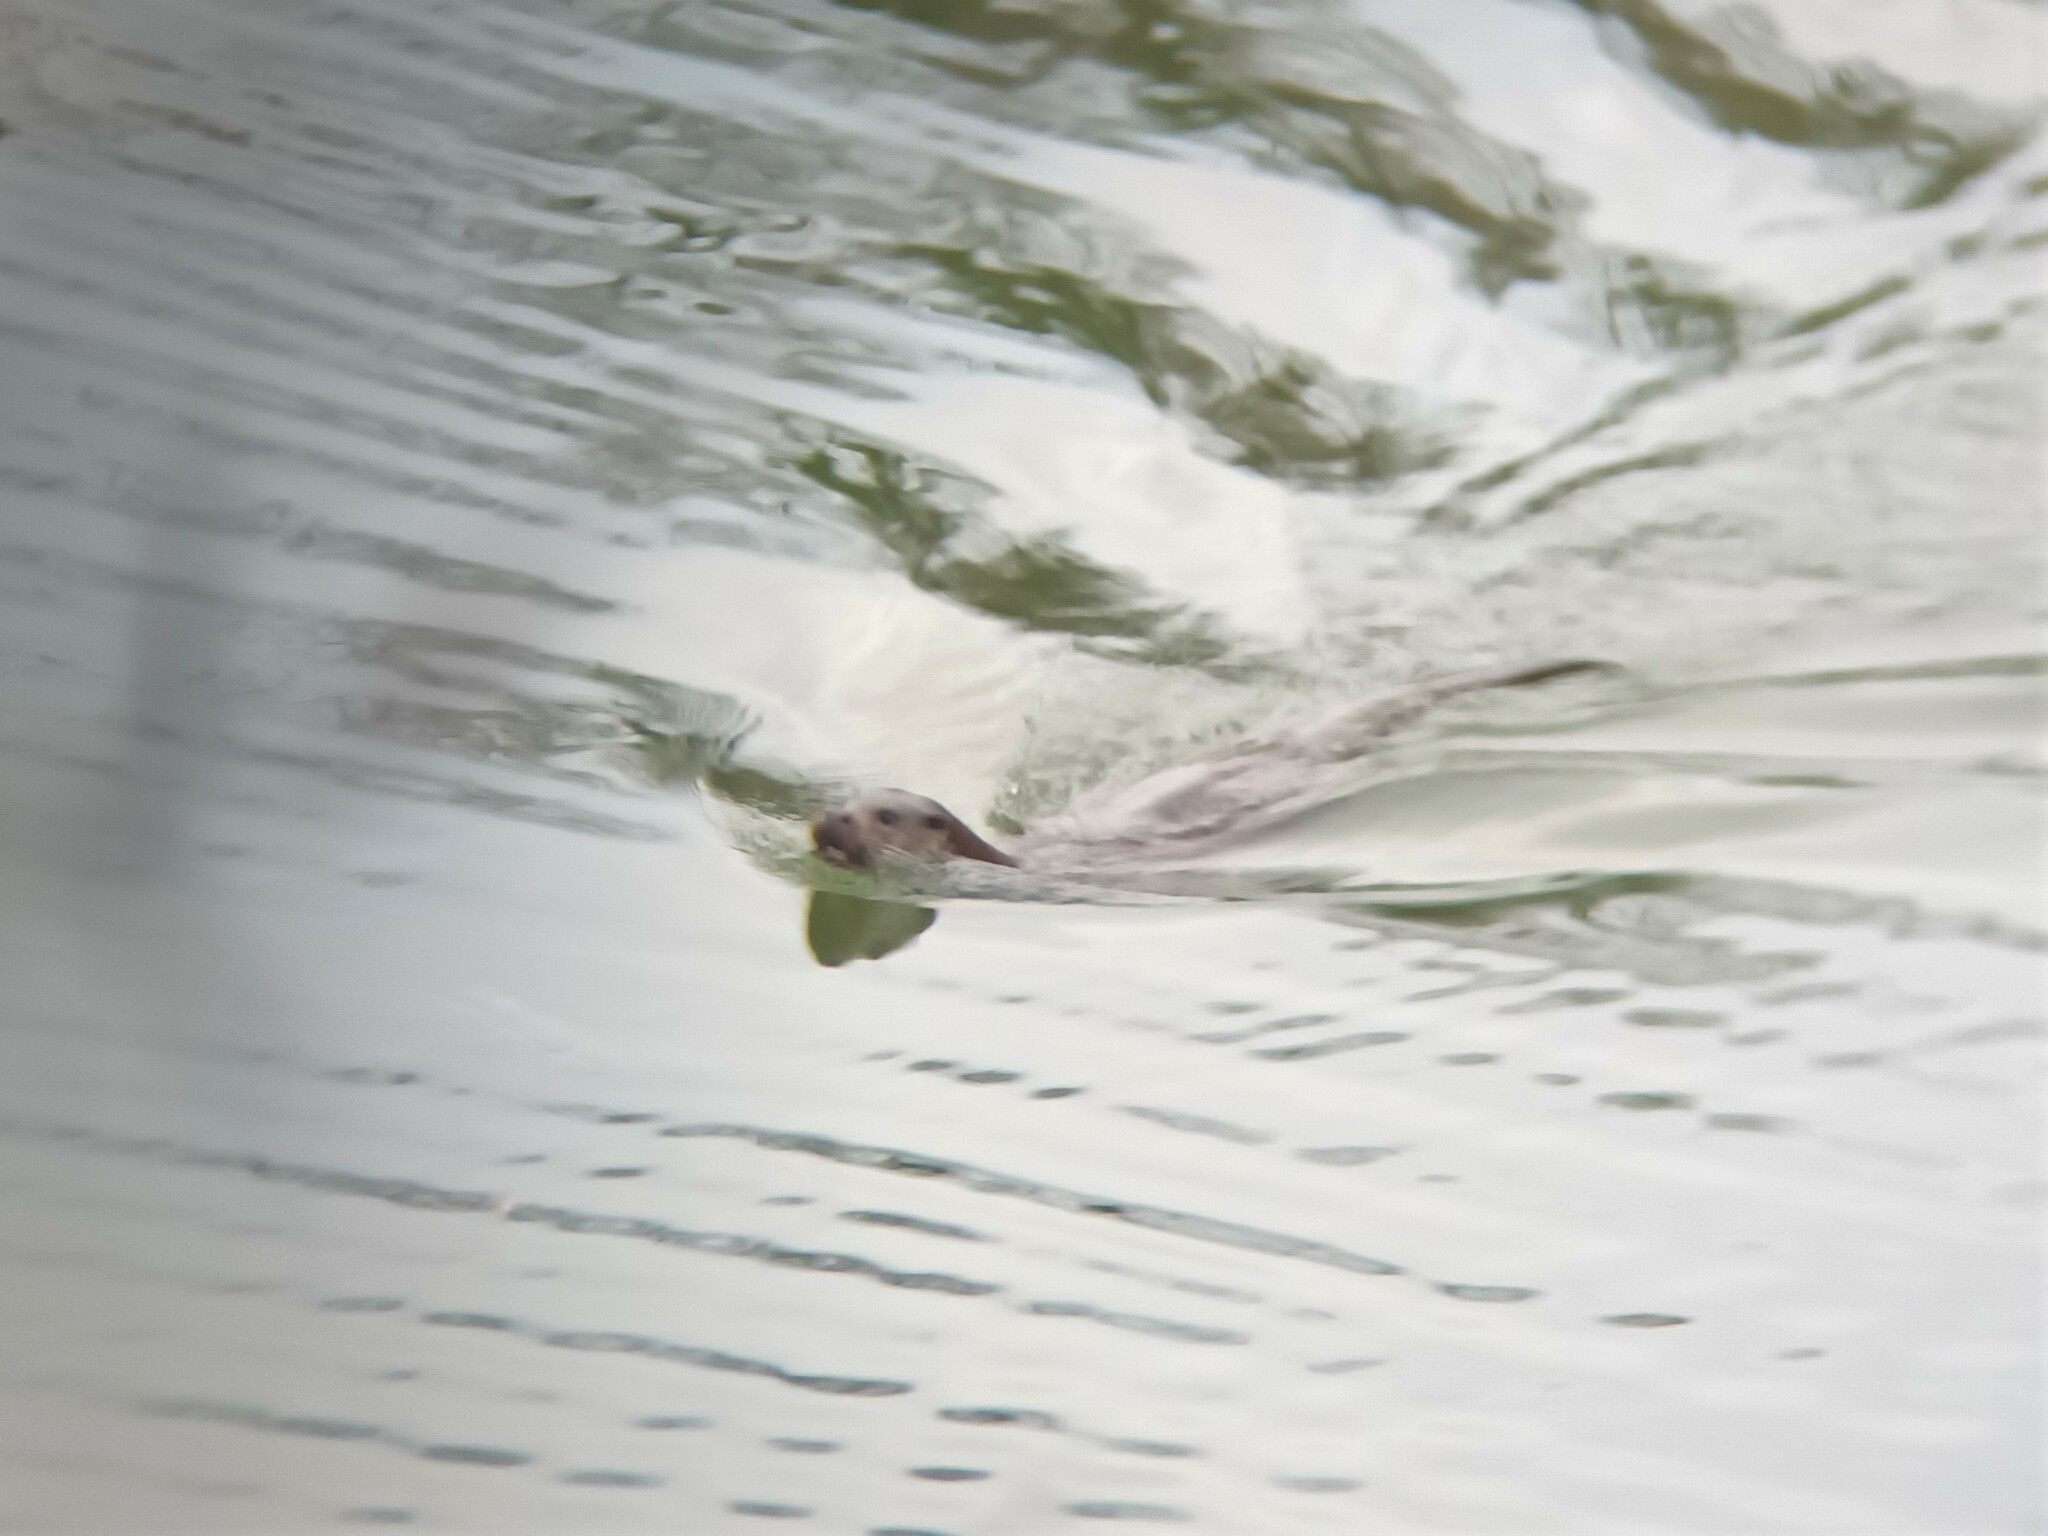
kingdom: Animalia
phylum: Chordata
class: Mammalia
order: Carnivora
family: Mustelidae
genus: Lutra
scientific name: Lutra lutra
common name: European otter
